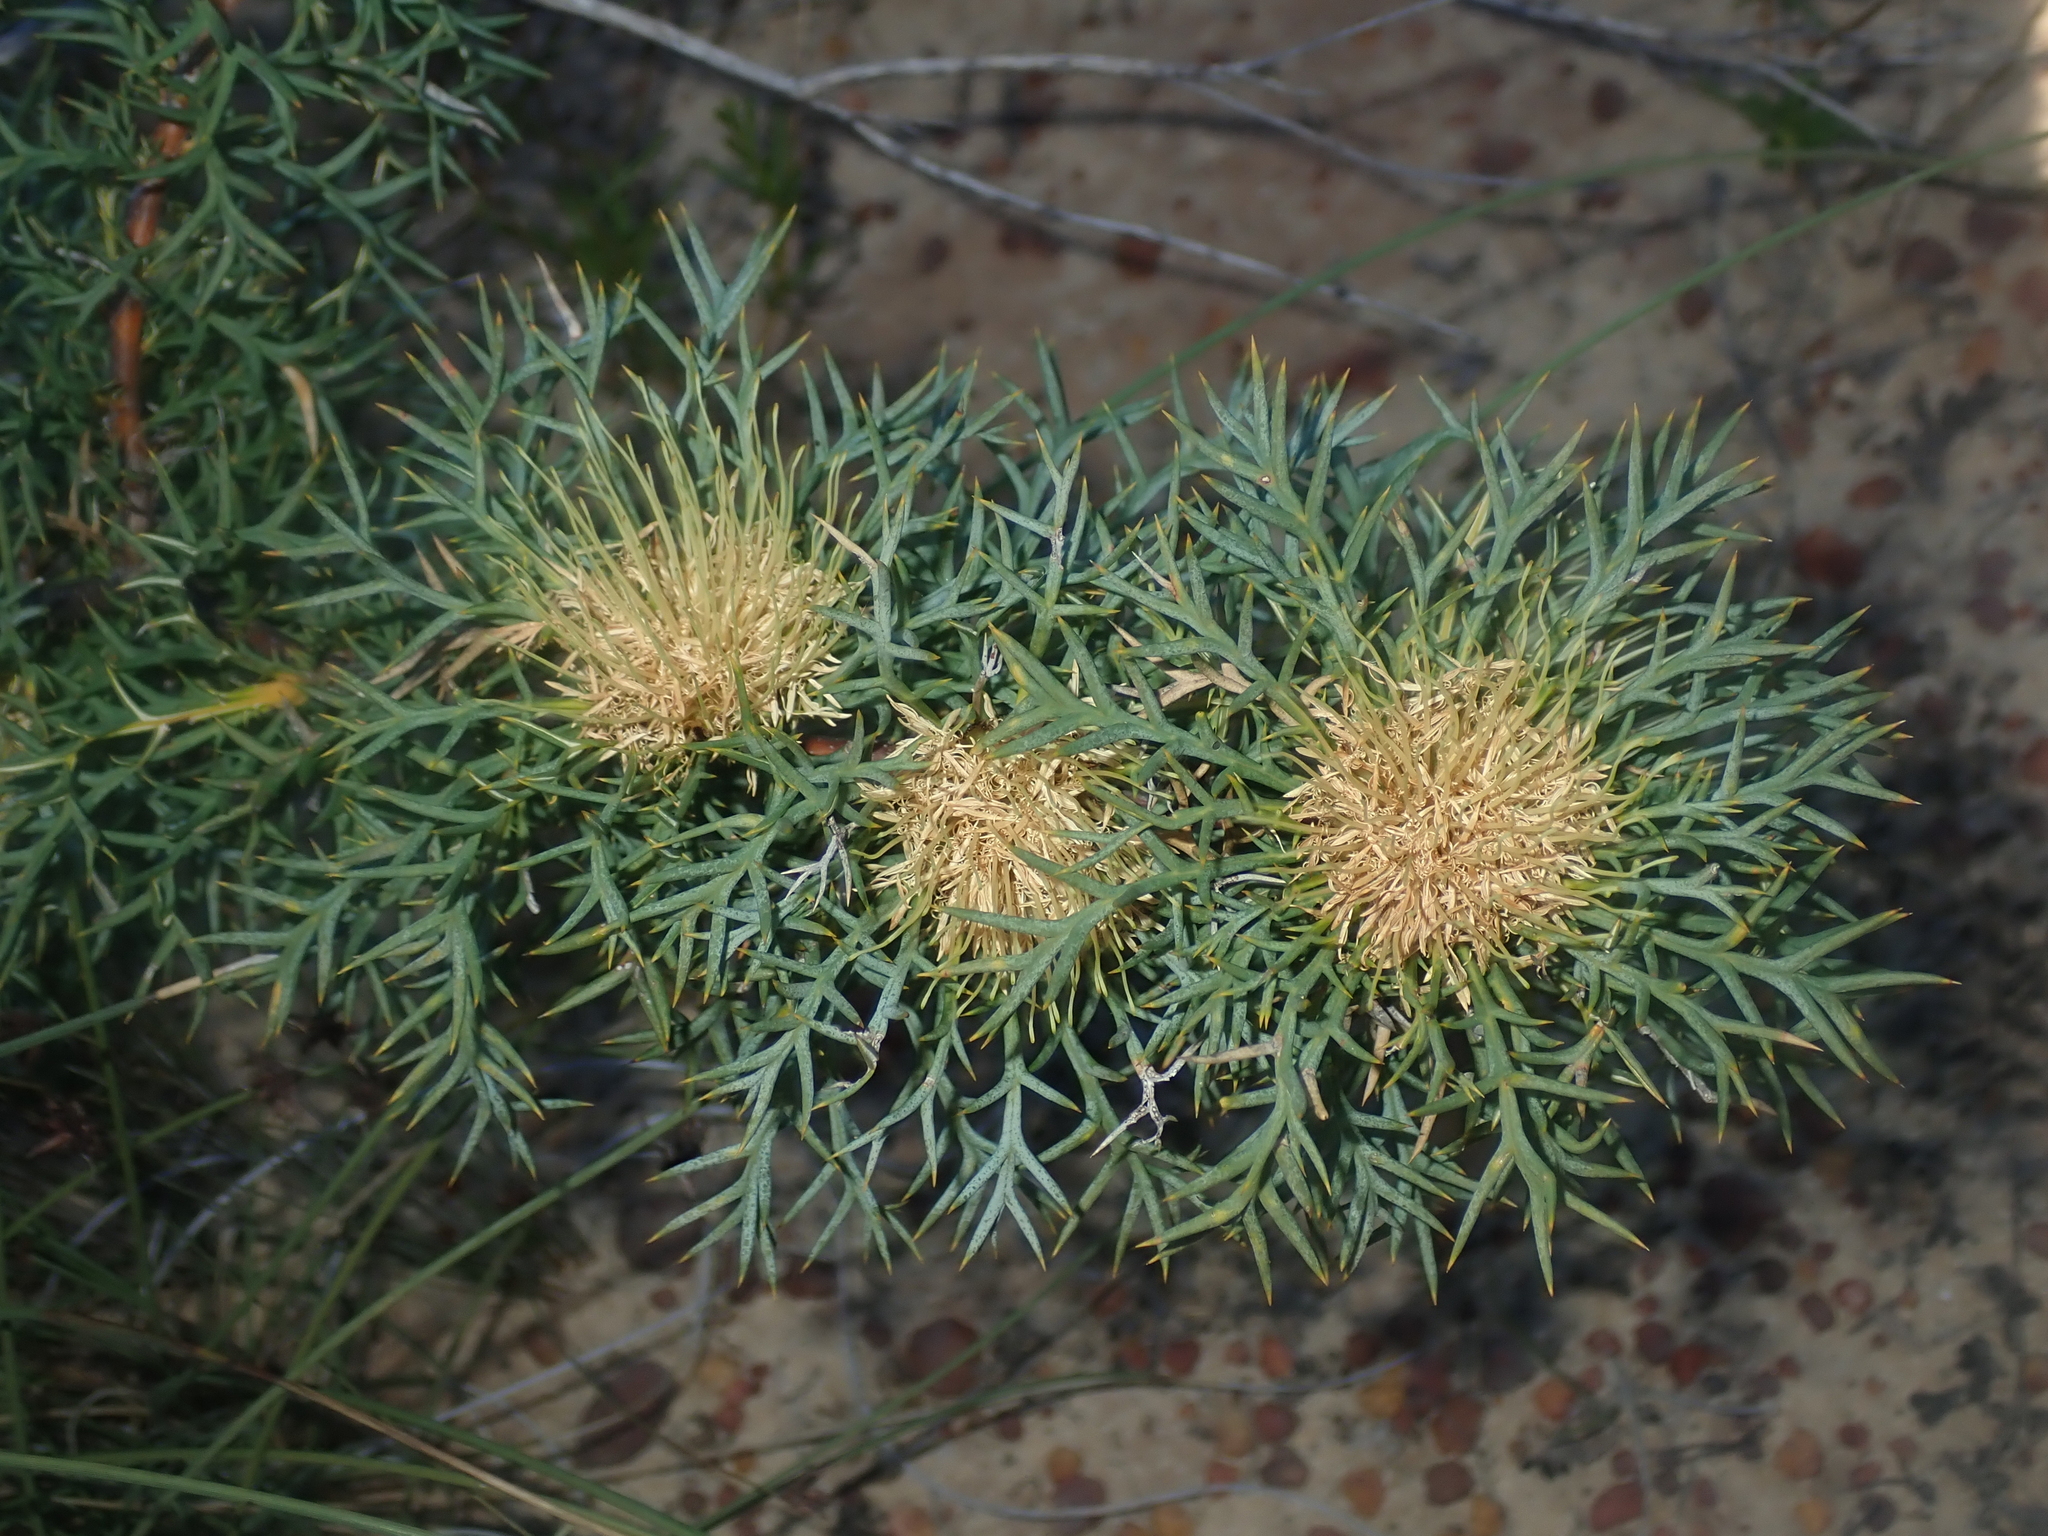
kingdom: Plantae
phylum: Tracheophyta
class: Magnoliopsida
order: Proteales
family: Proteaceae
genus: Banksia
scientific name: Banksia fraseri
